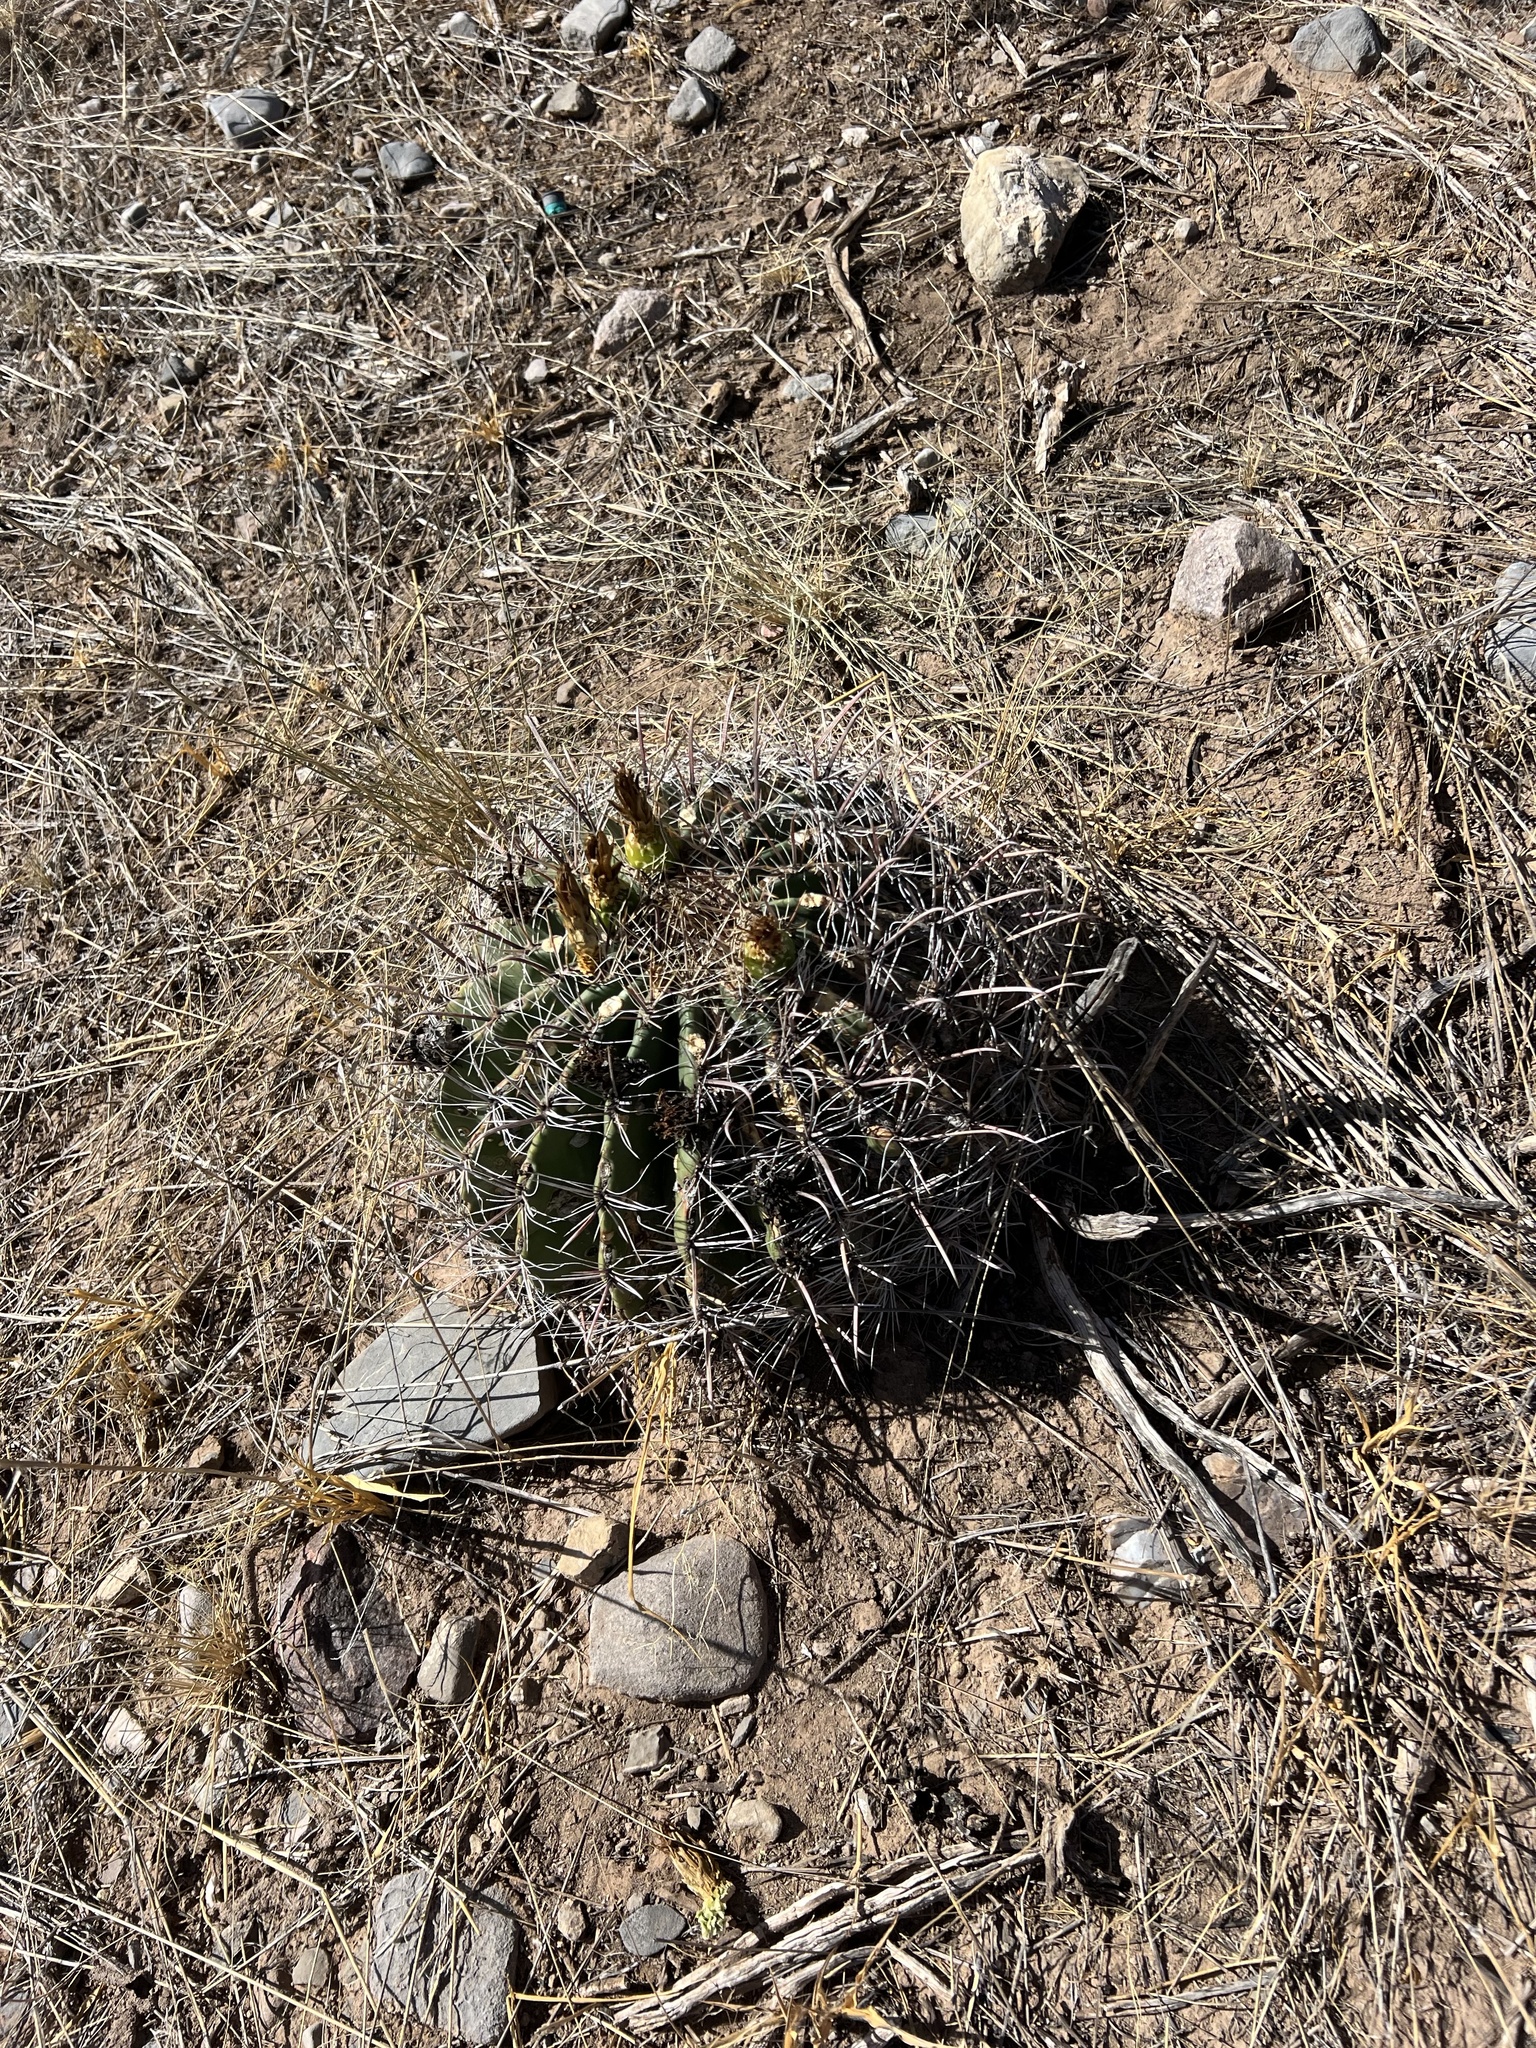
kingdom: Plantae
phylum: Tracheophyta
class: Magnoliopsida
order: Caryophyllales
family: Cactaceae
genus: Ferocactus
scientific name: Ferocactus wislizeni
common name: Candy barrel cactus
